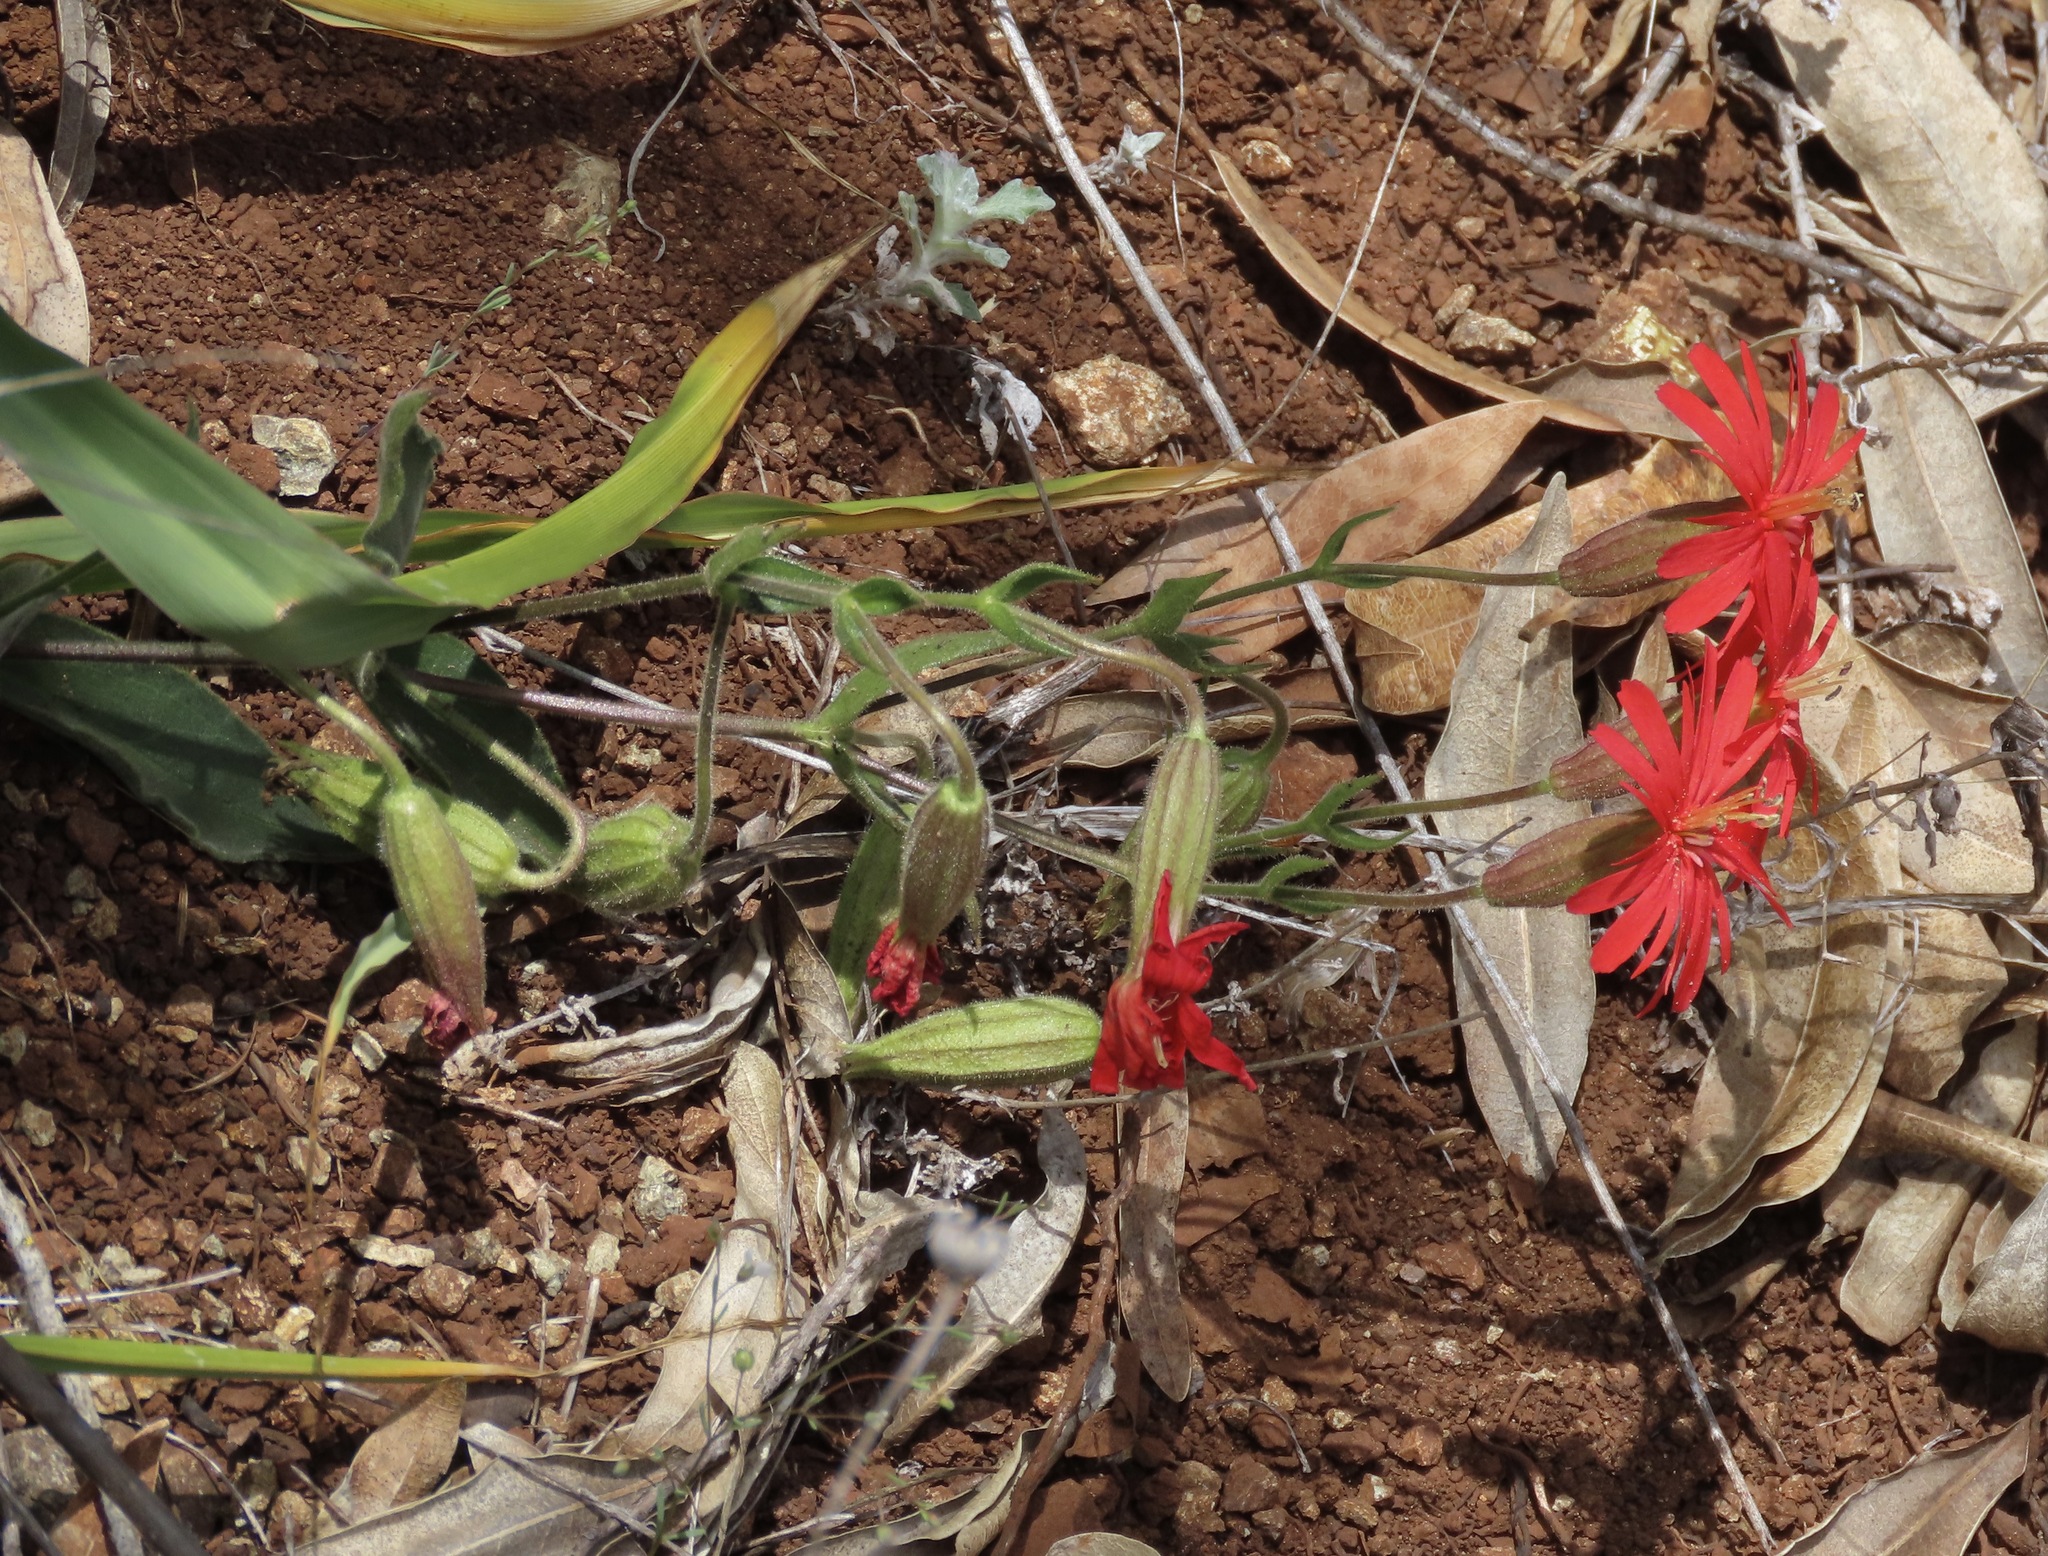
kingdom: Plantae
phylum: Tracheophyta
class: Magnoliopsida
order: Caryophyllales
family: Caryophyllaceae
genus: Silene
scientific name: Silene laciniata
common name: Indian-pink
